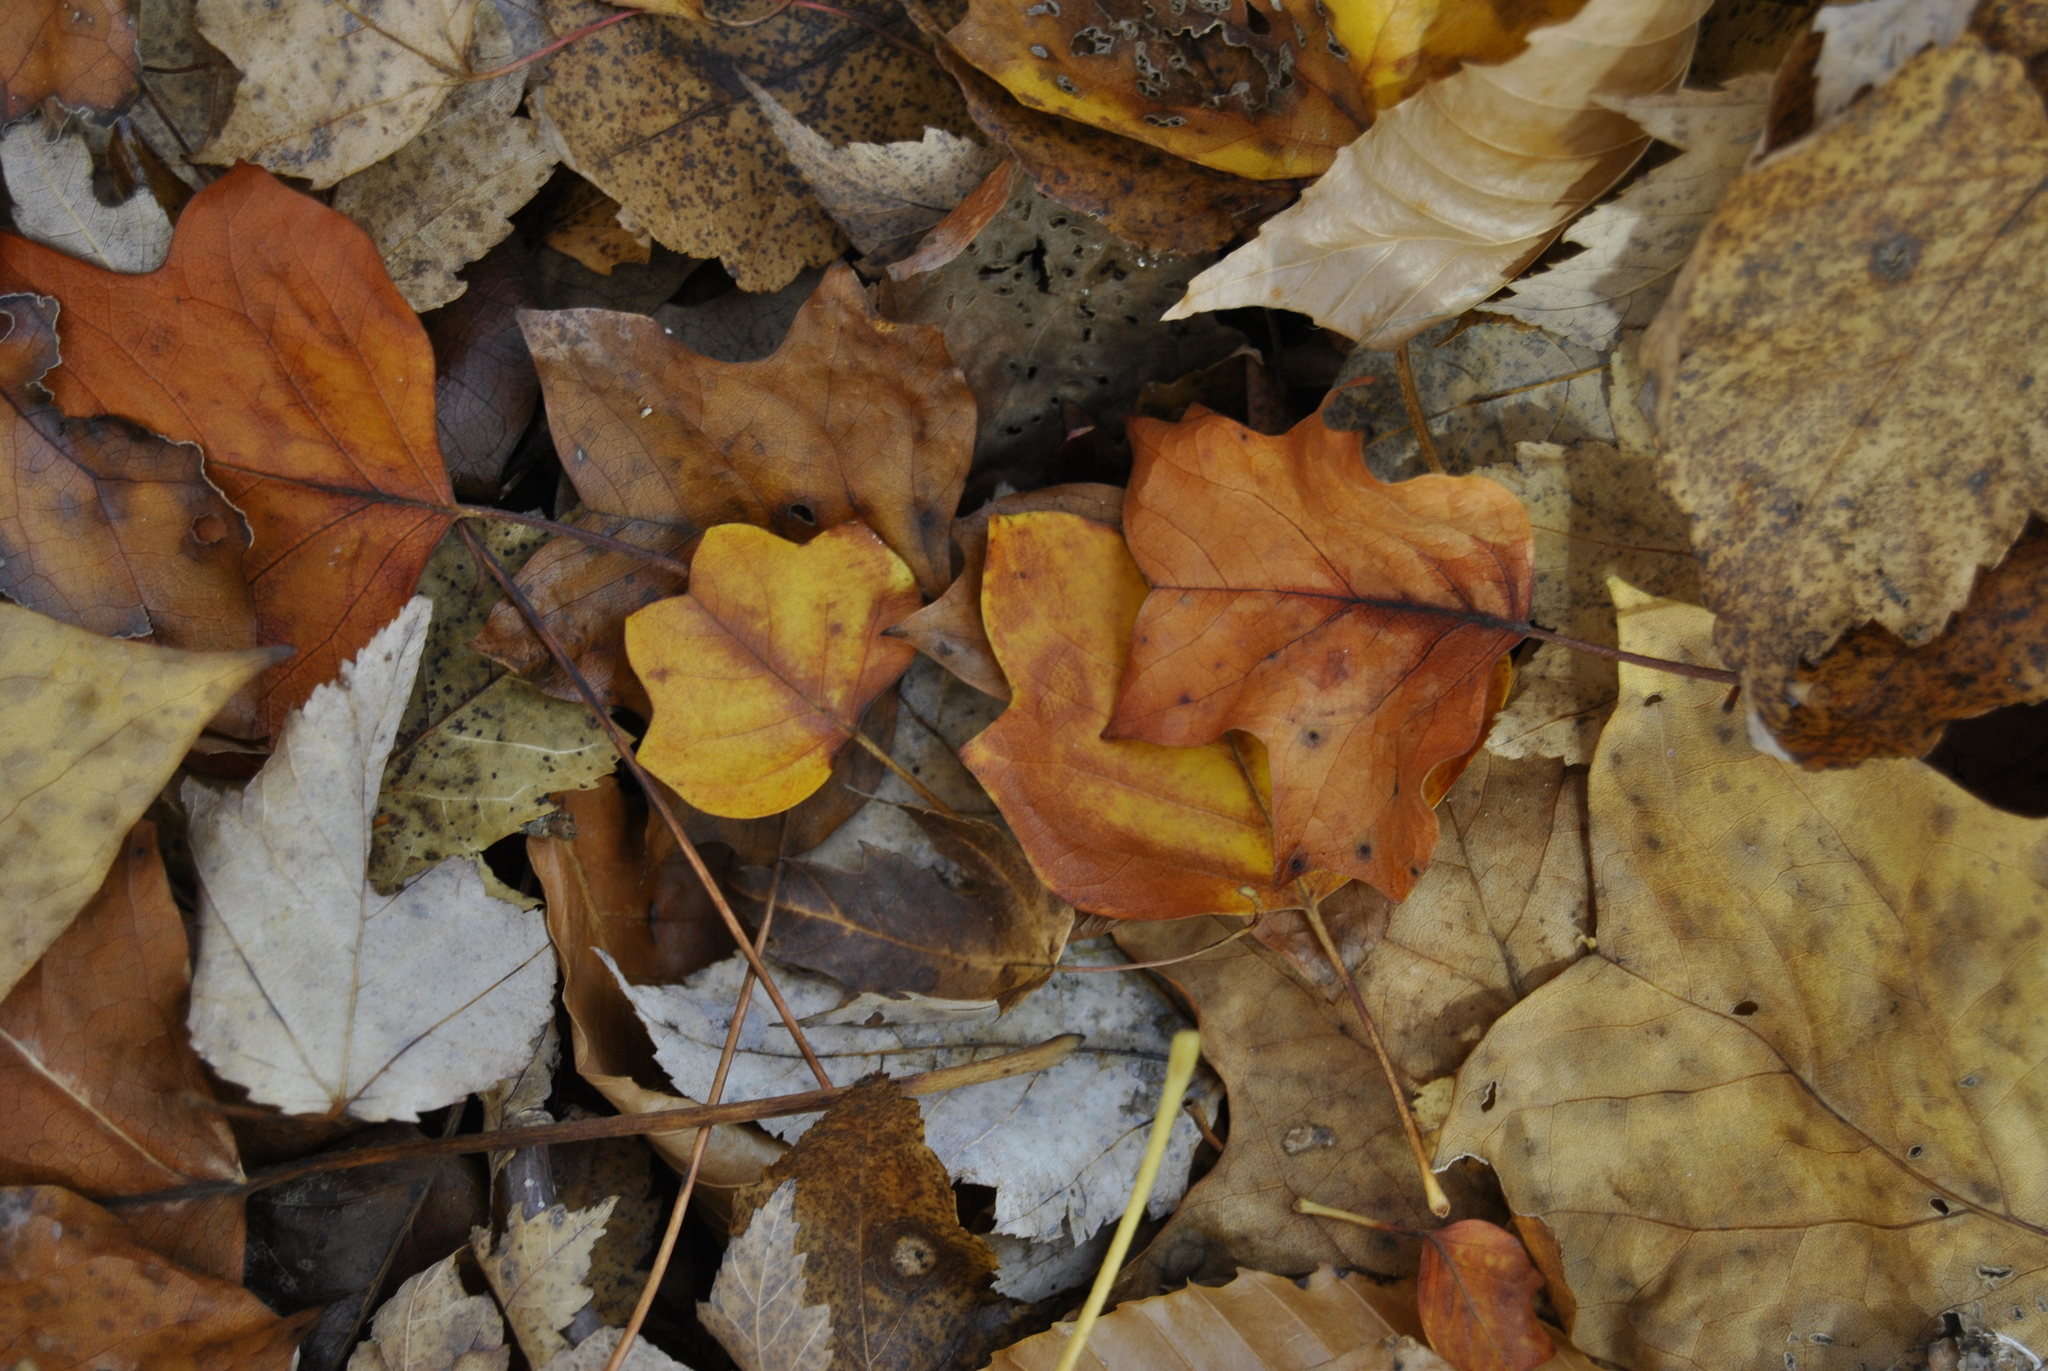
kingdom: Plantae
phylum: Tracheophyta
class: Magnoliopsida
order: Magnoliales
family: Magnoliaceae
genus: Liriodendron
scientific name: Liriodendron tulipifera
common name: Tulip tree
